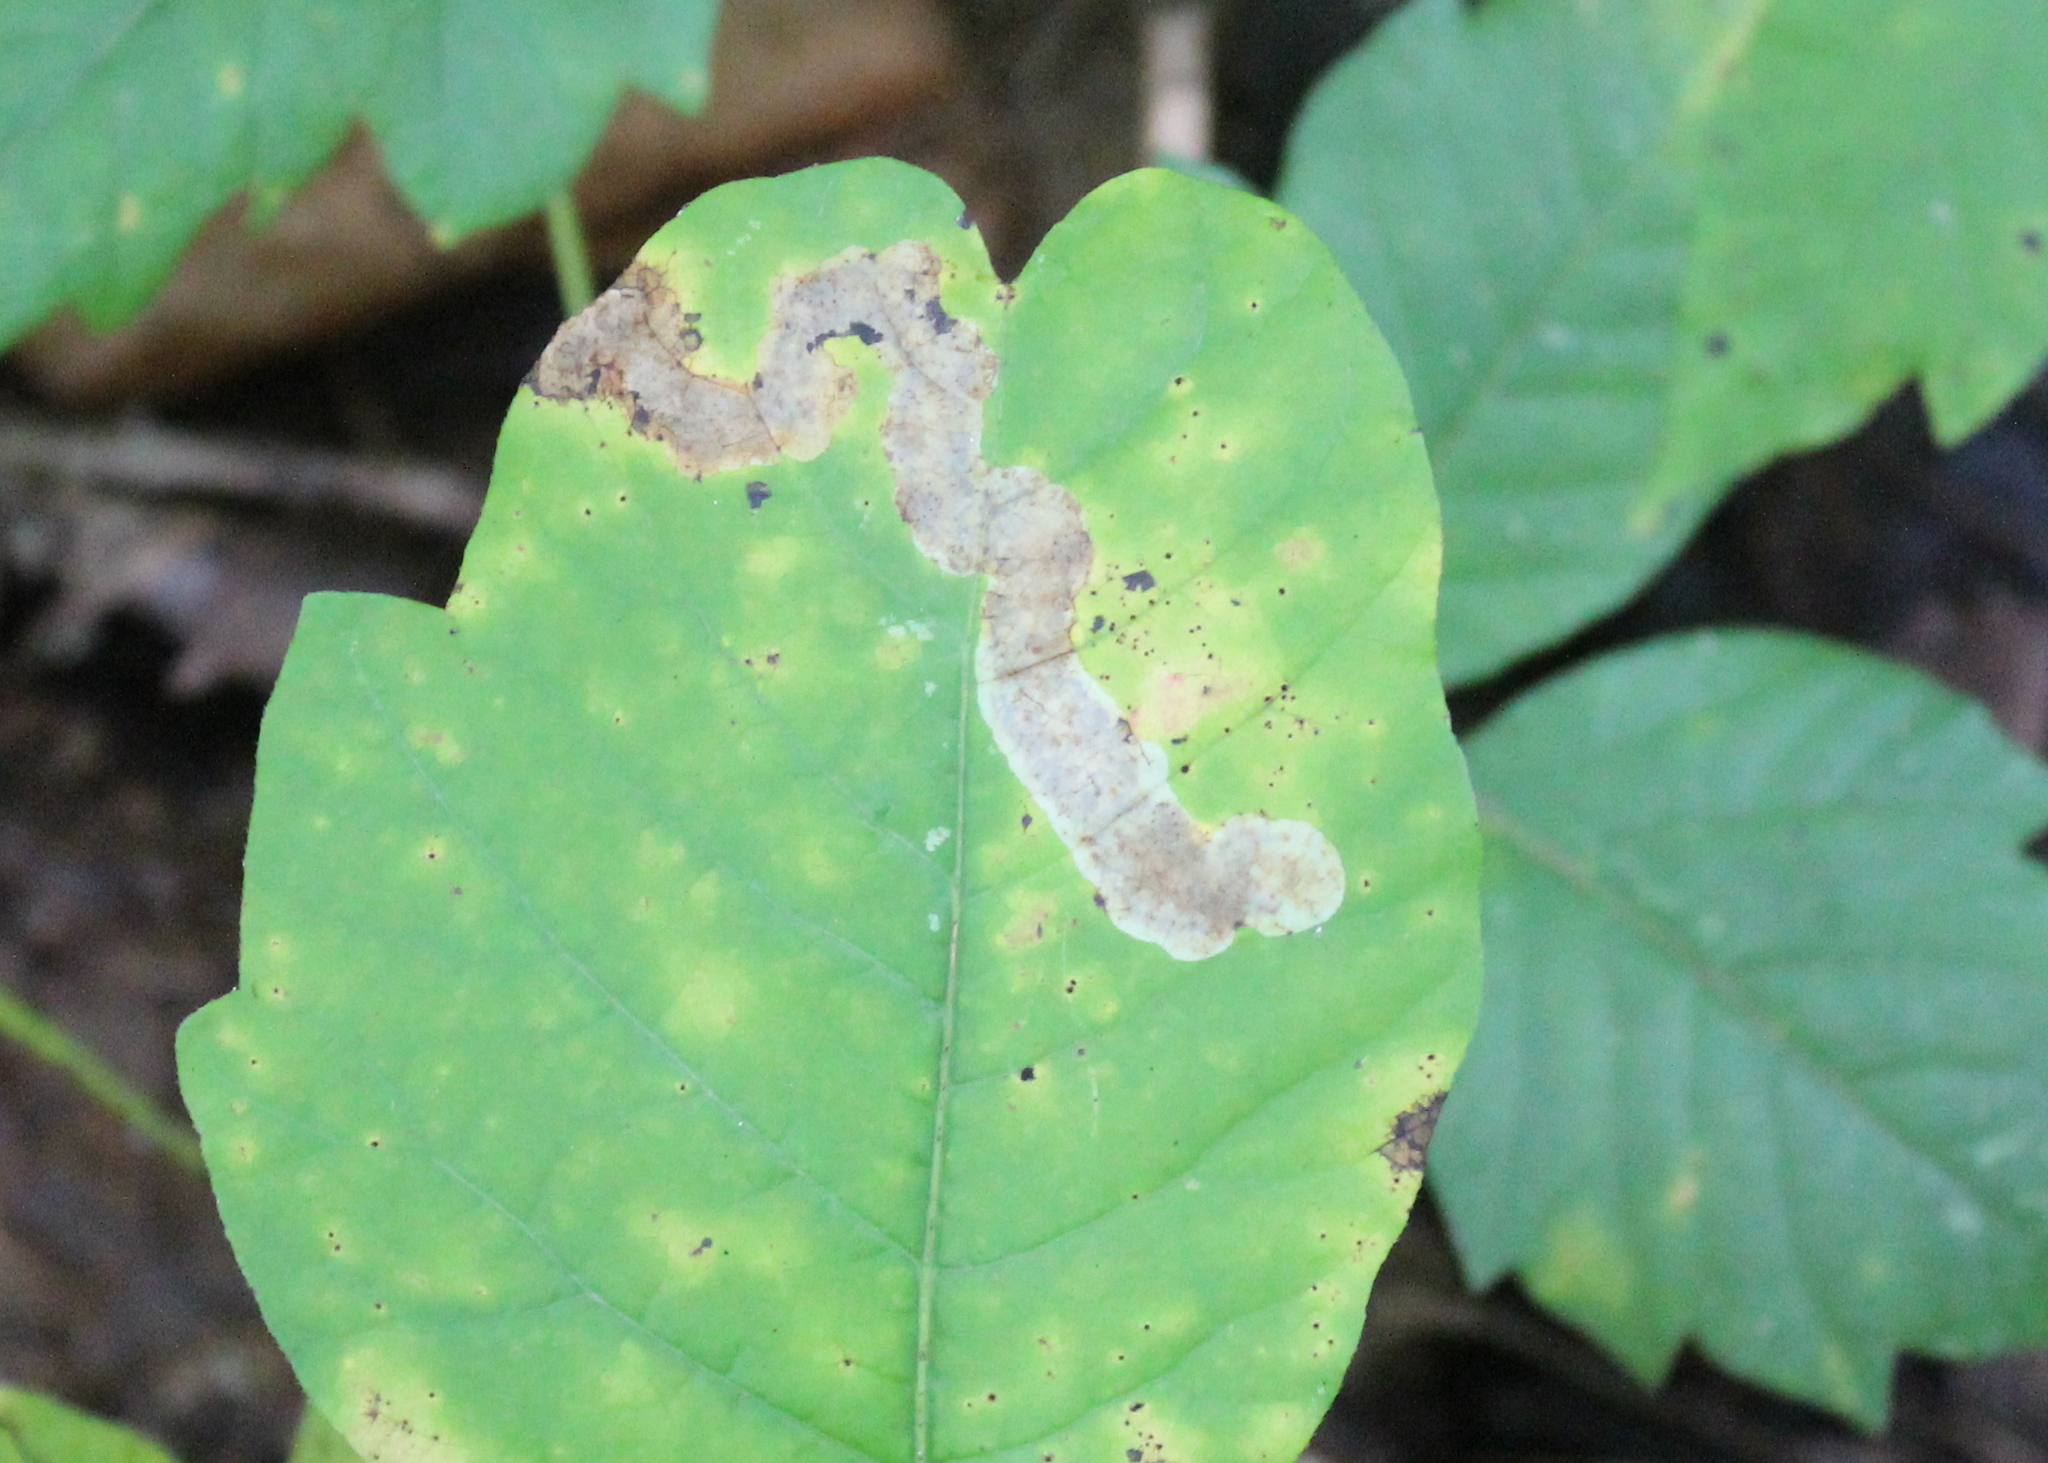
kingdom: Animalia
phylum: Arthropoda
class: Insecta
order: Lepidoptera
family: Gracillariidae
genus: Cameraria
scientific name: Cameraria guttifinitella
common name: Poison ivy leaf-miner moth
